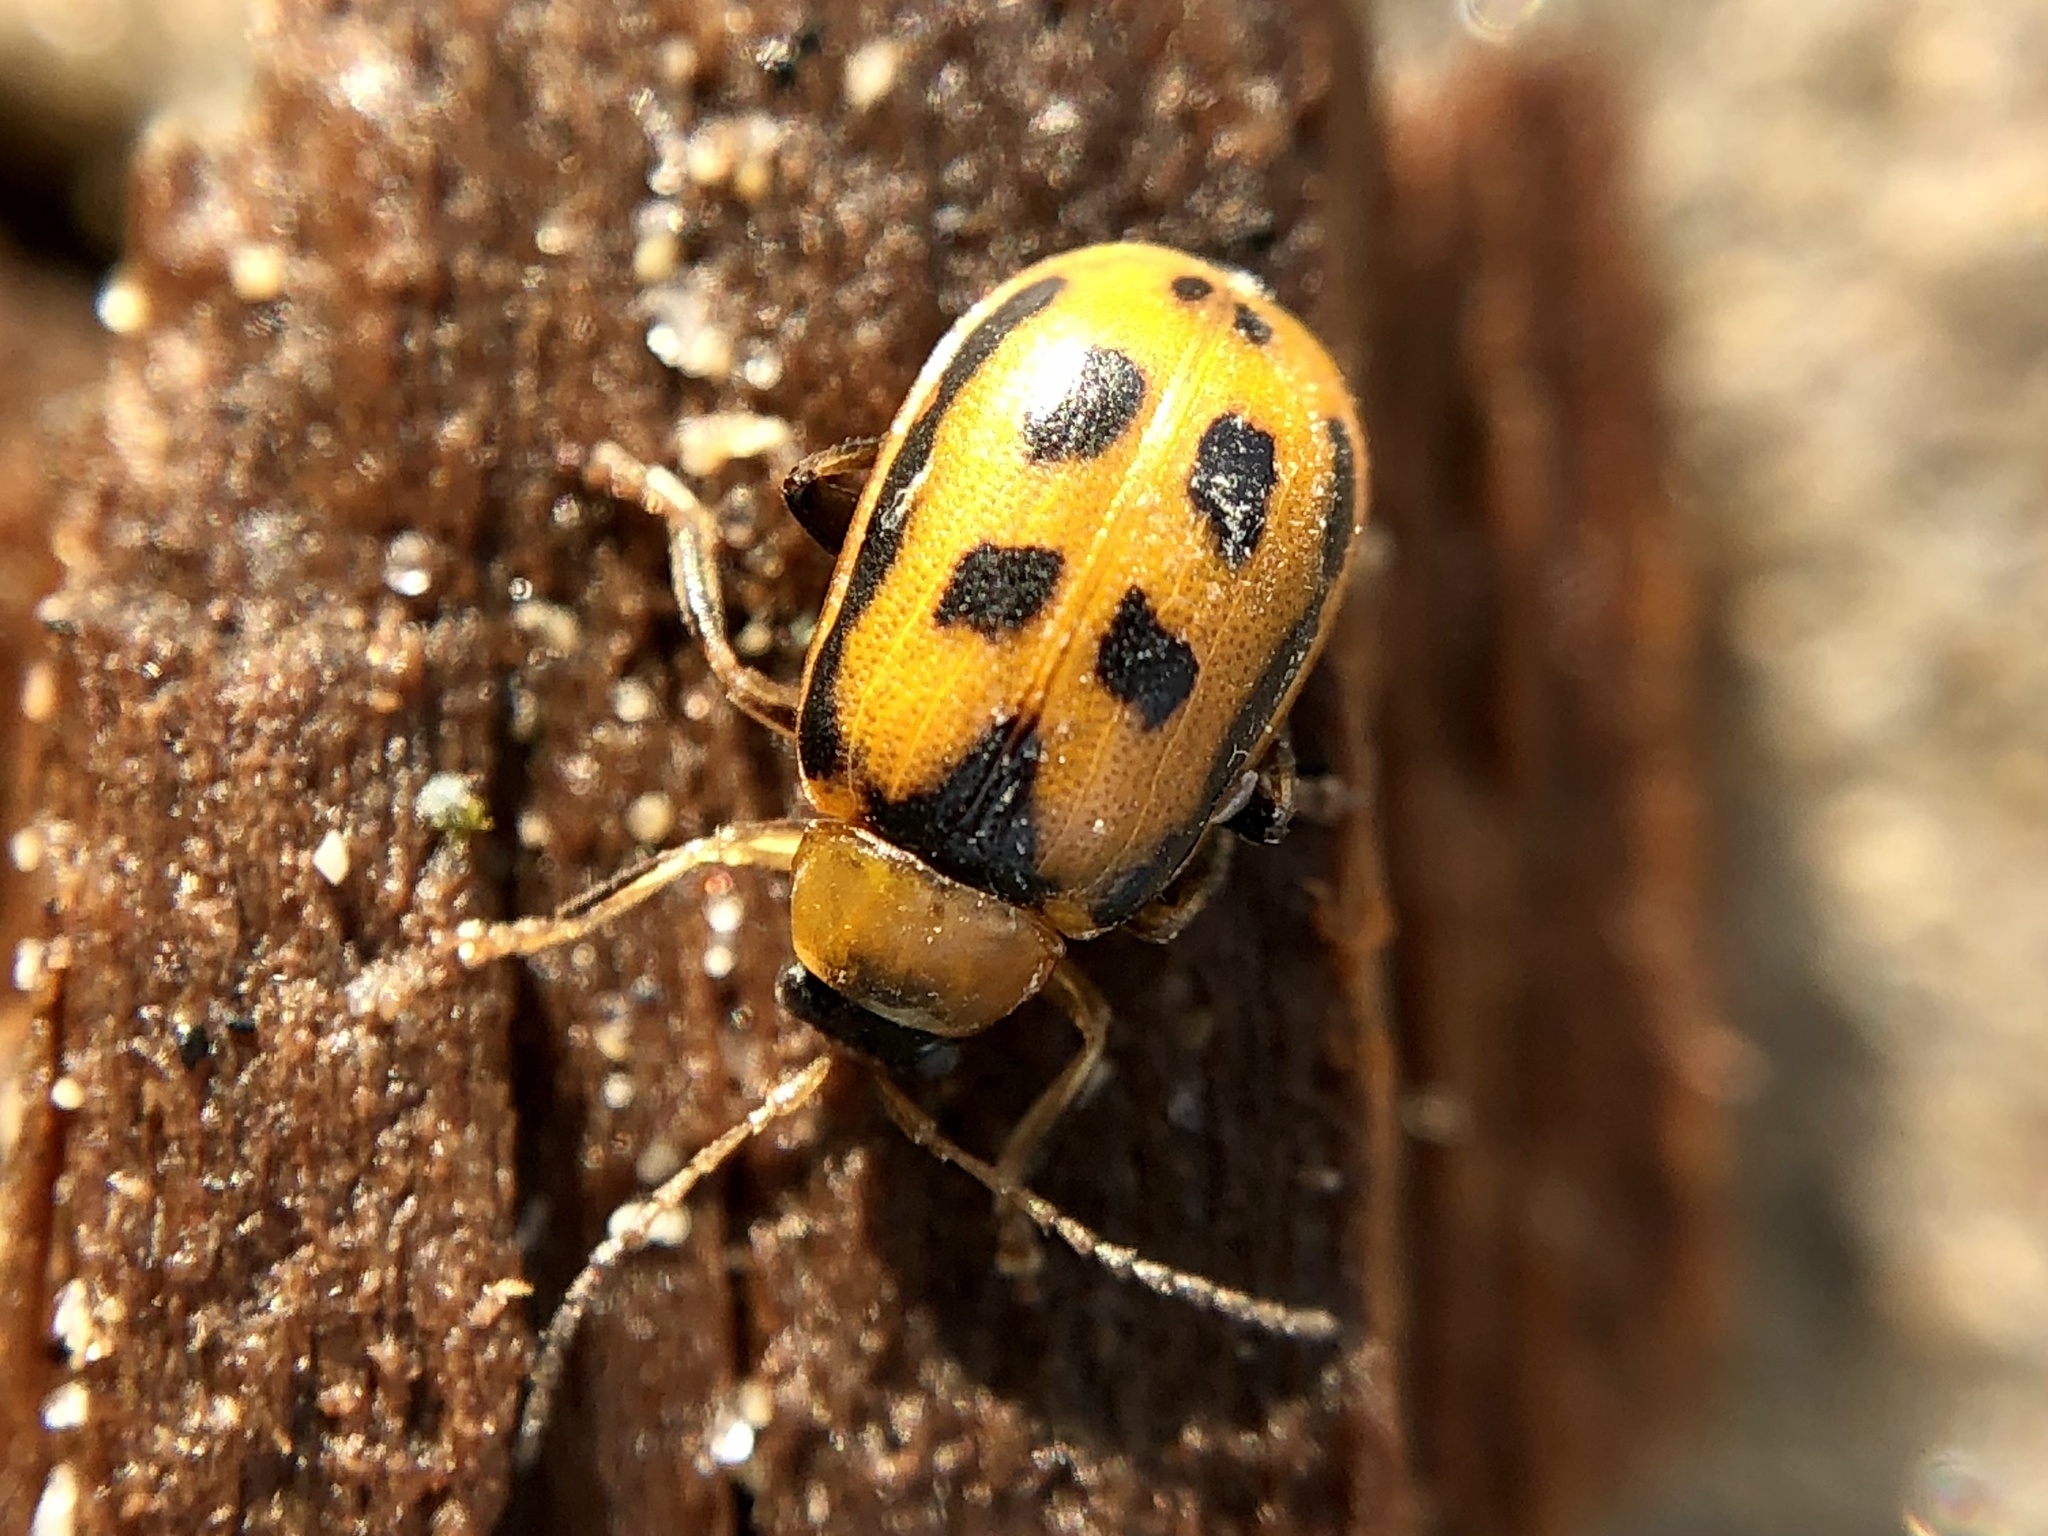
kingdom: Animalia
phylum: Arthropoda
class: Insecta
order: Coleoptera
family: Chrysomelidae
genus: Cerotoma
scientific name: Cerotoma trifurcata
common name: Bean leaf beetle
